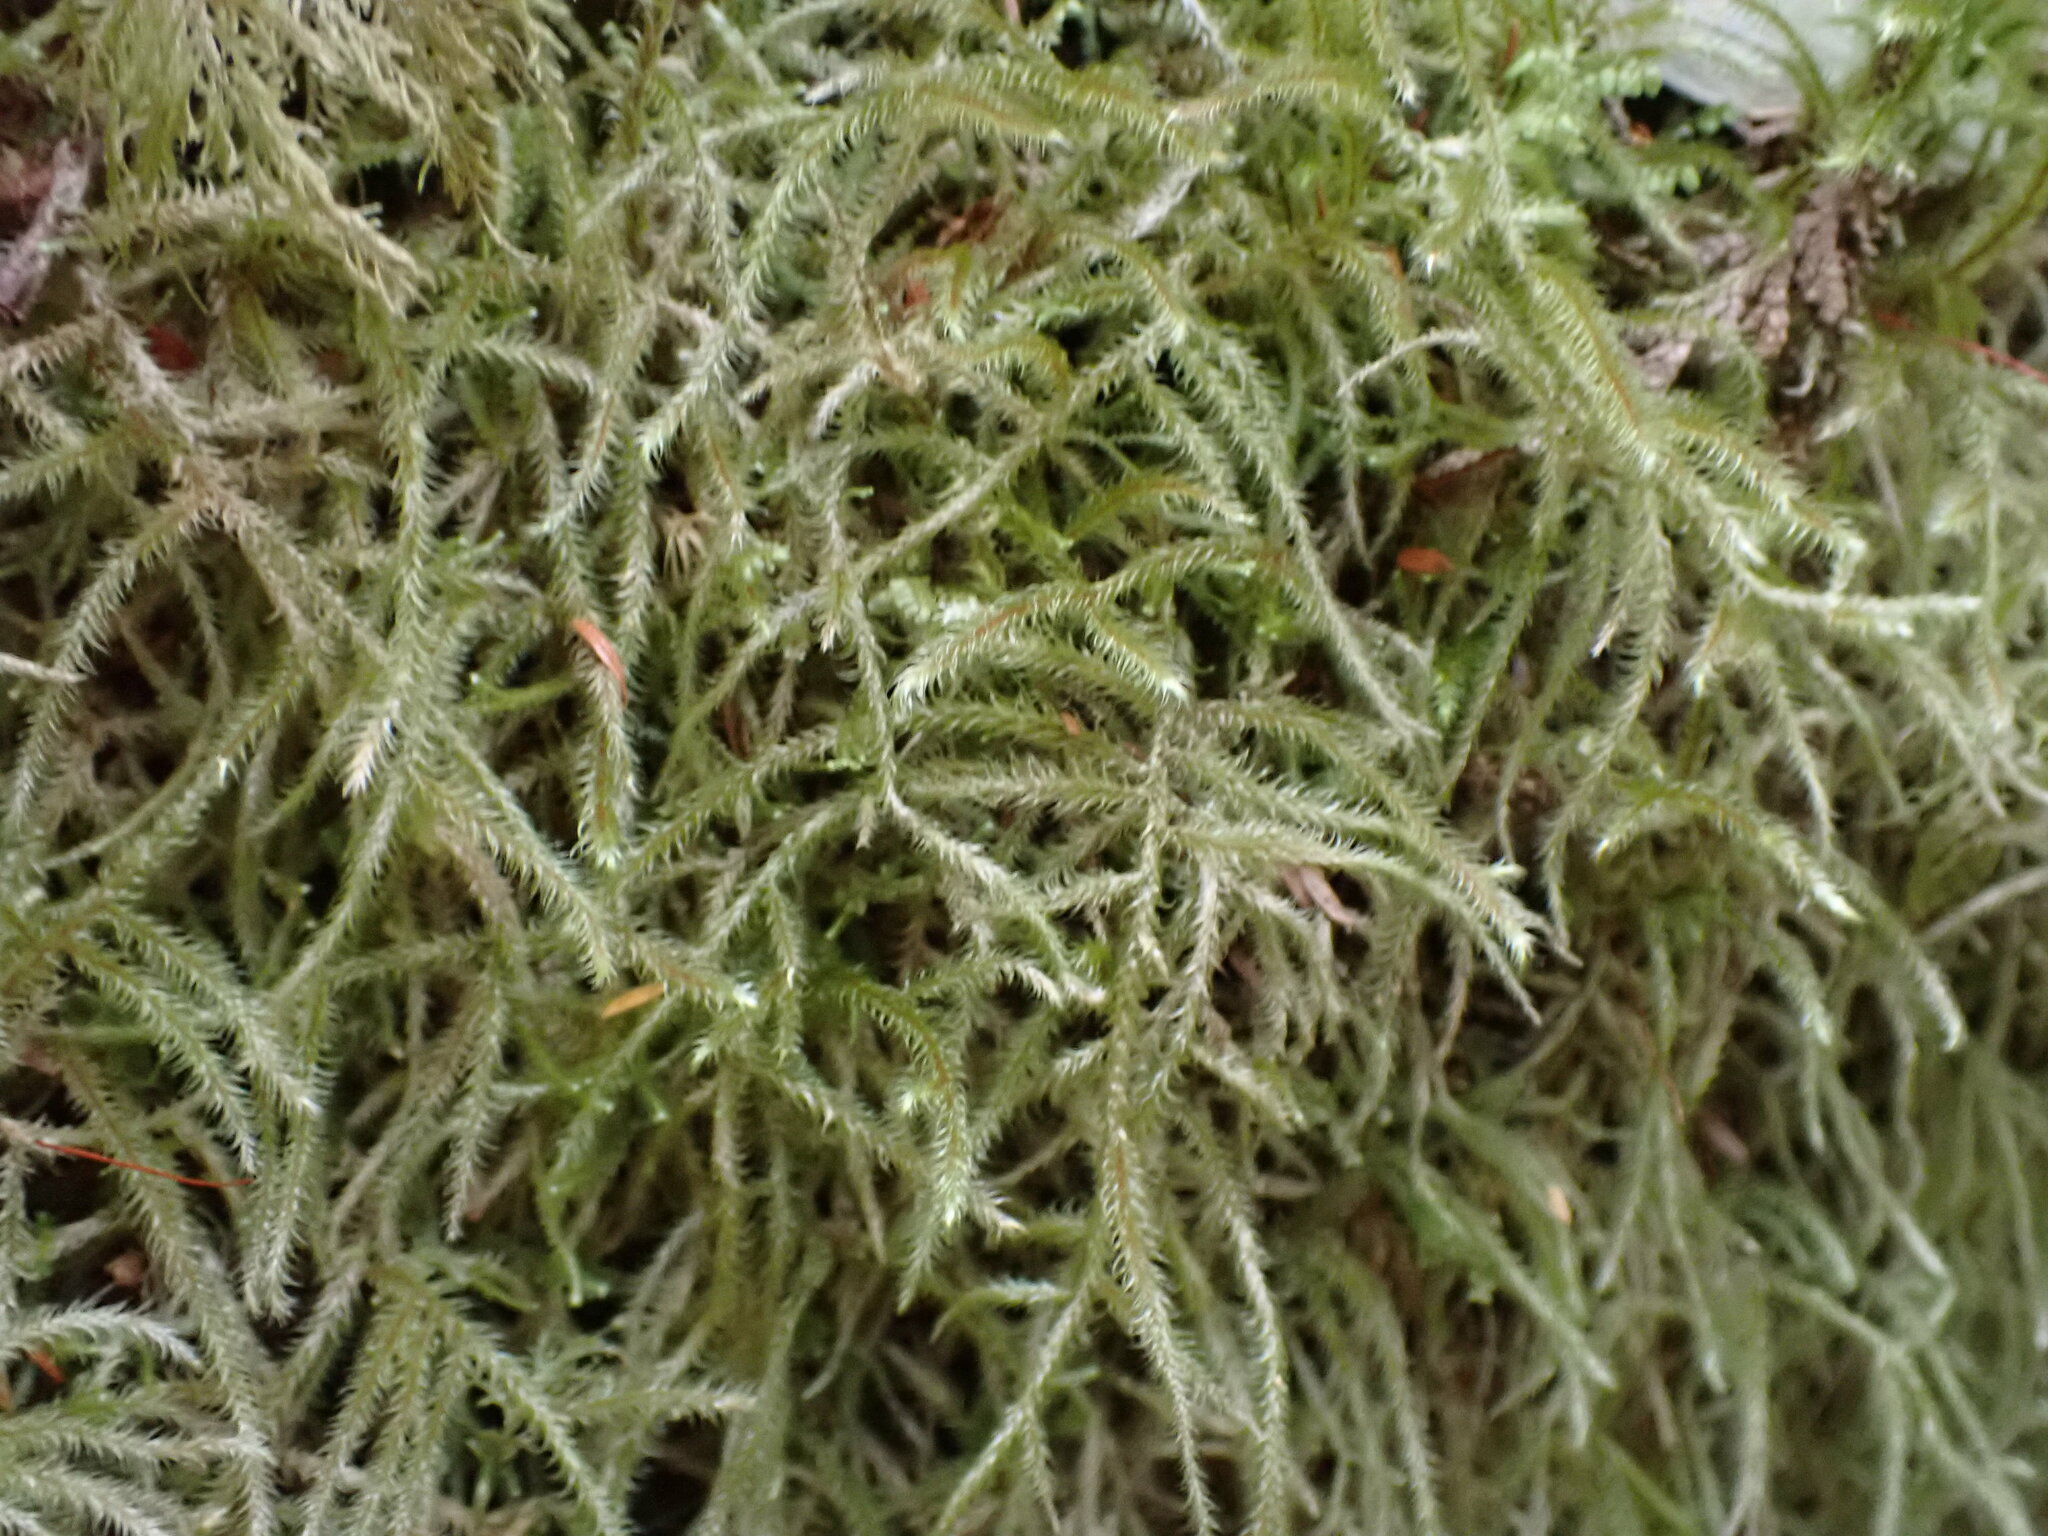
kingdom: Plantae
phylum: Bryophyta
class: Bryopsida
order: Hypnales
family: Hylocomiaceae
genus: Rhytidiadelphus
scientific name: Rhytidiadelphus loreus
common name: Lanky moss
